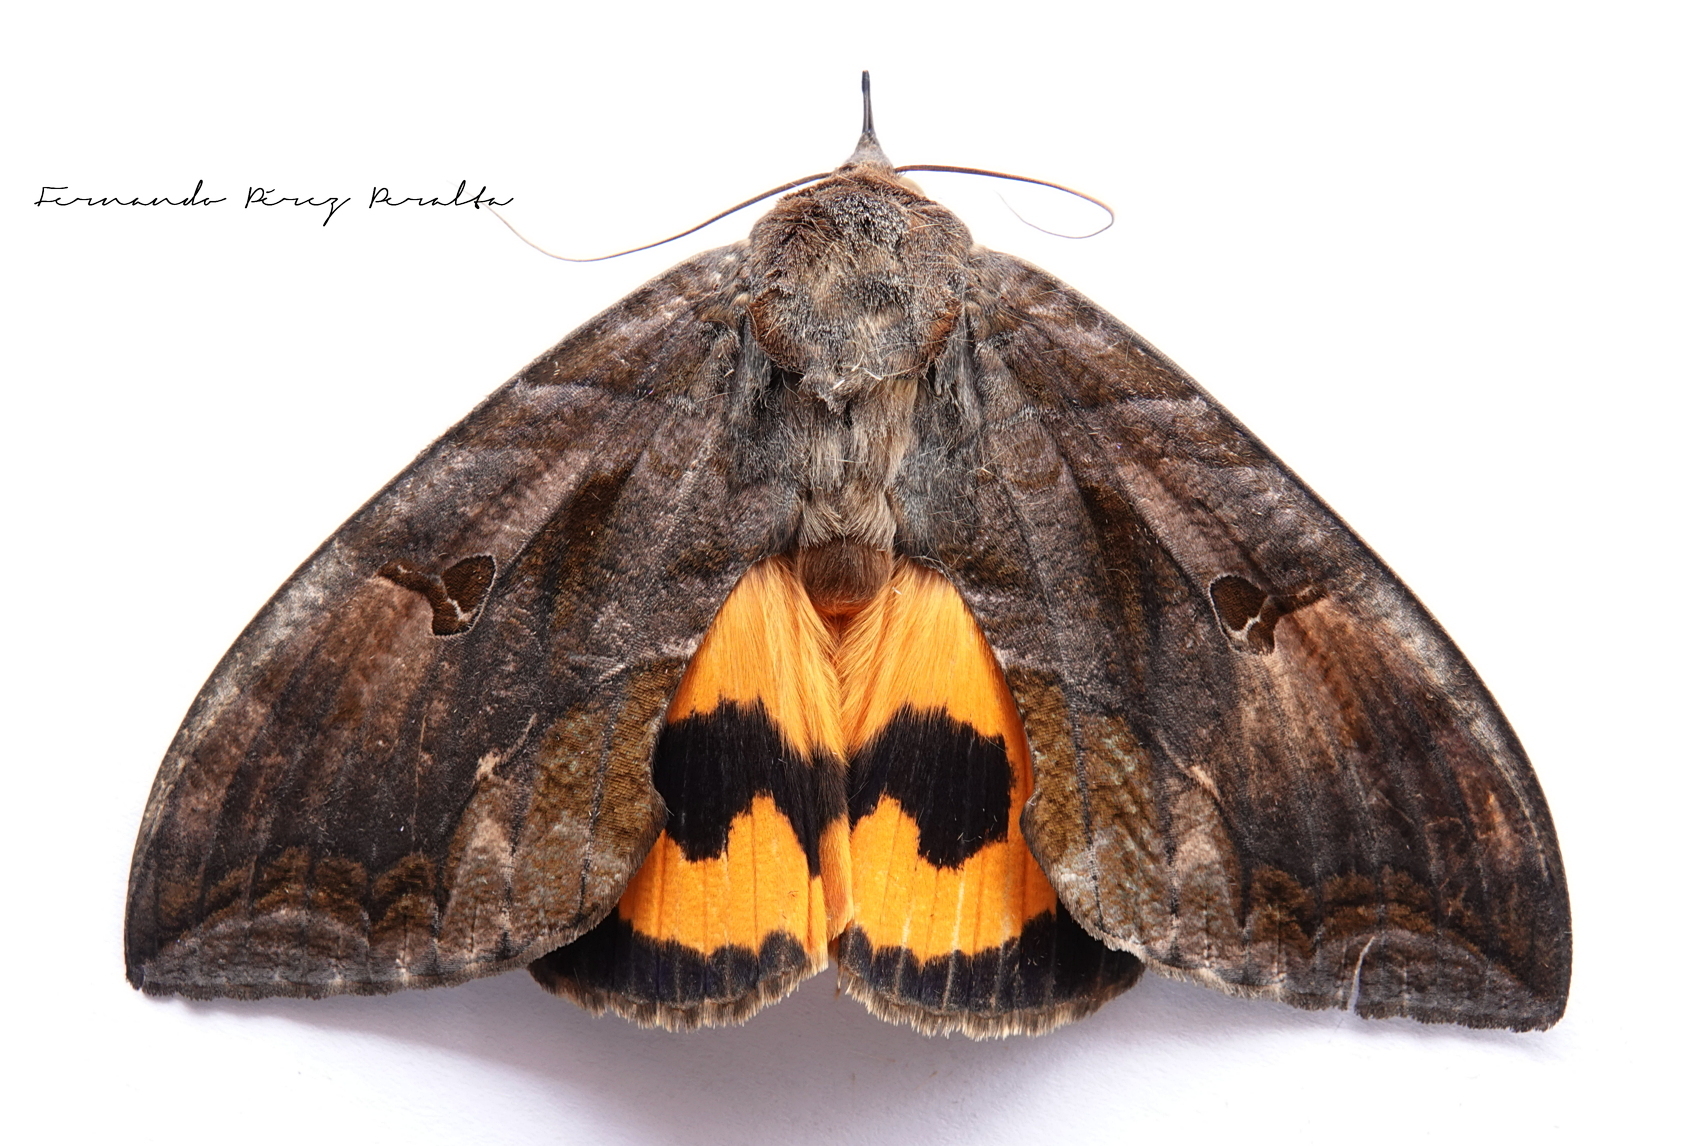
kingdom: Animalia
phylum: Arthropoda
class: Insecta
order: Lepidoptera
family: Erebidae
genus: Eudocima
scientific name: Eudocima serpentifera
